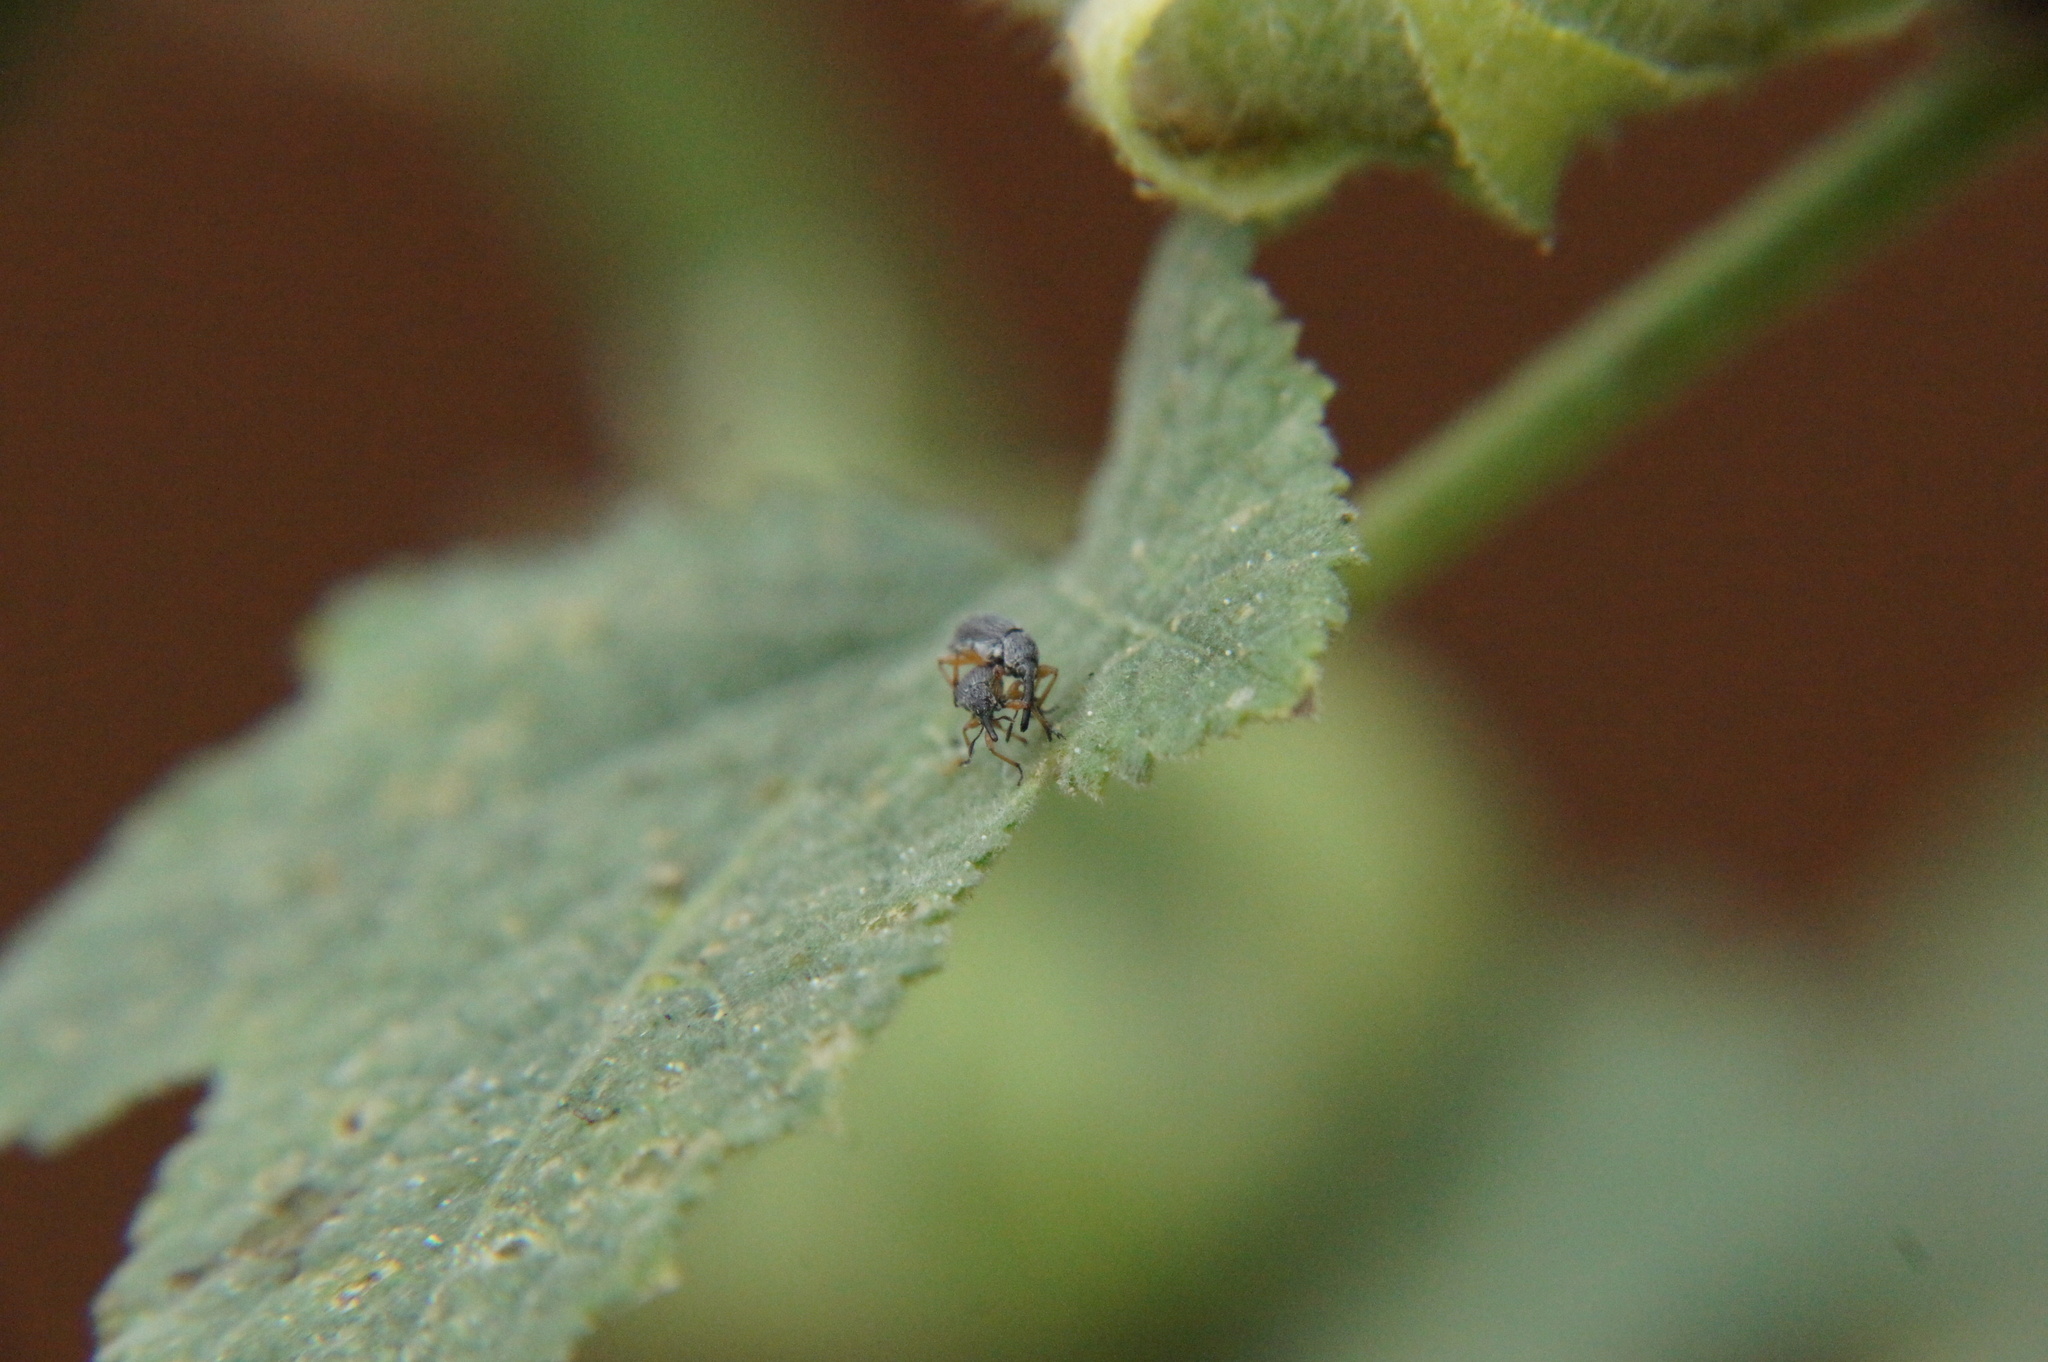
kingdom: Animalia
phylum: Arthropoda
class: Insecta
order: Coleoptera
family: Brentidae
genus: Rhopalapion
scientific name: Rhopalapion longirostre
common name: Hollyhock weevil
